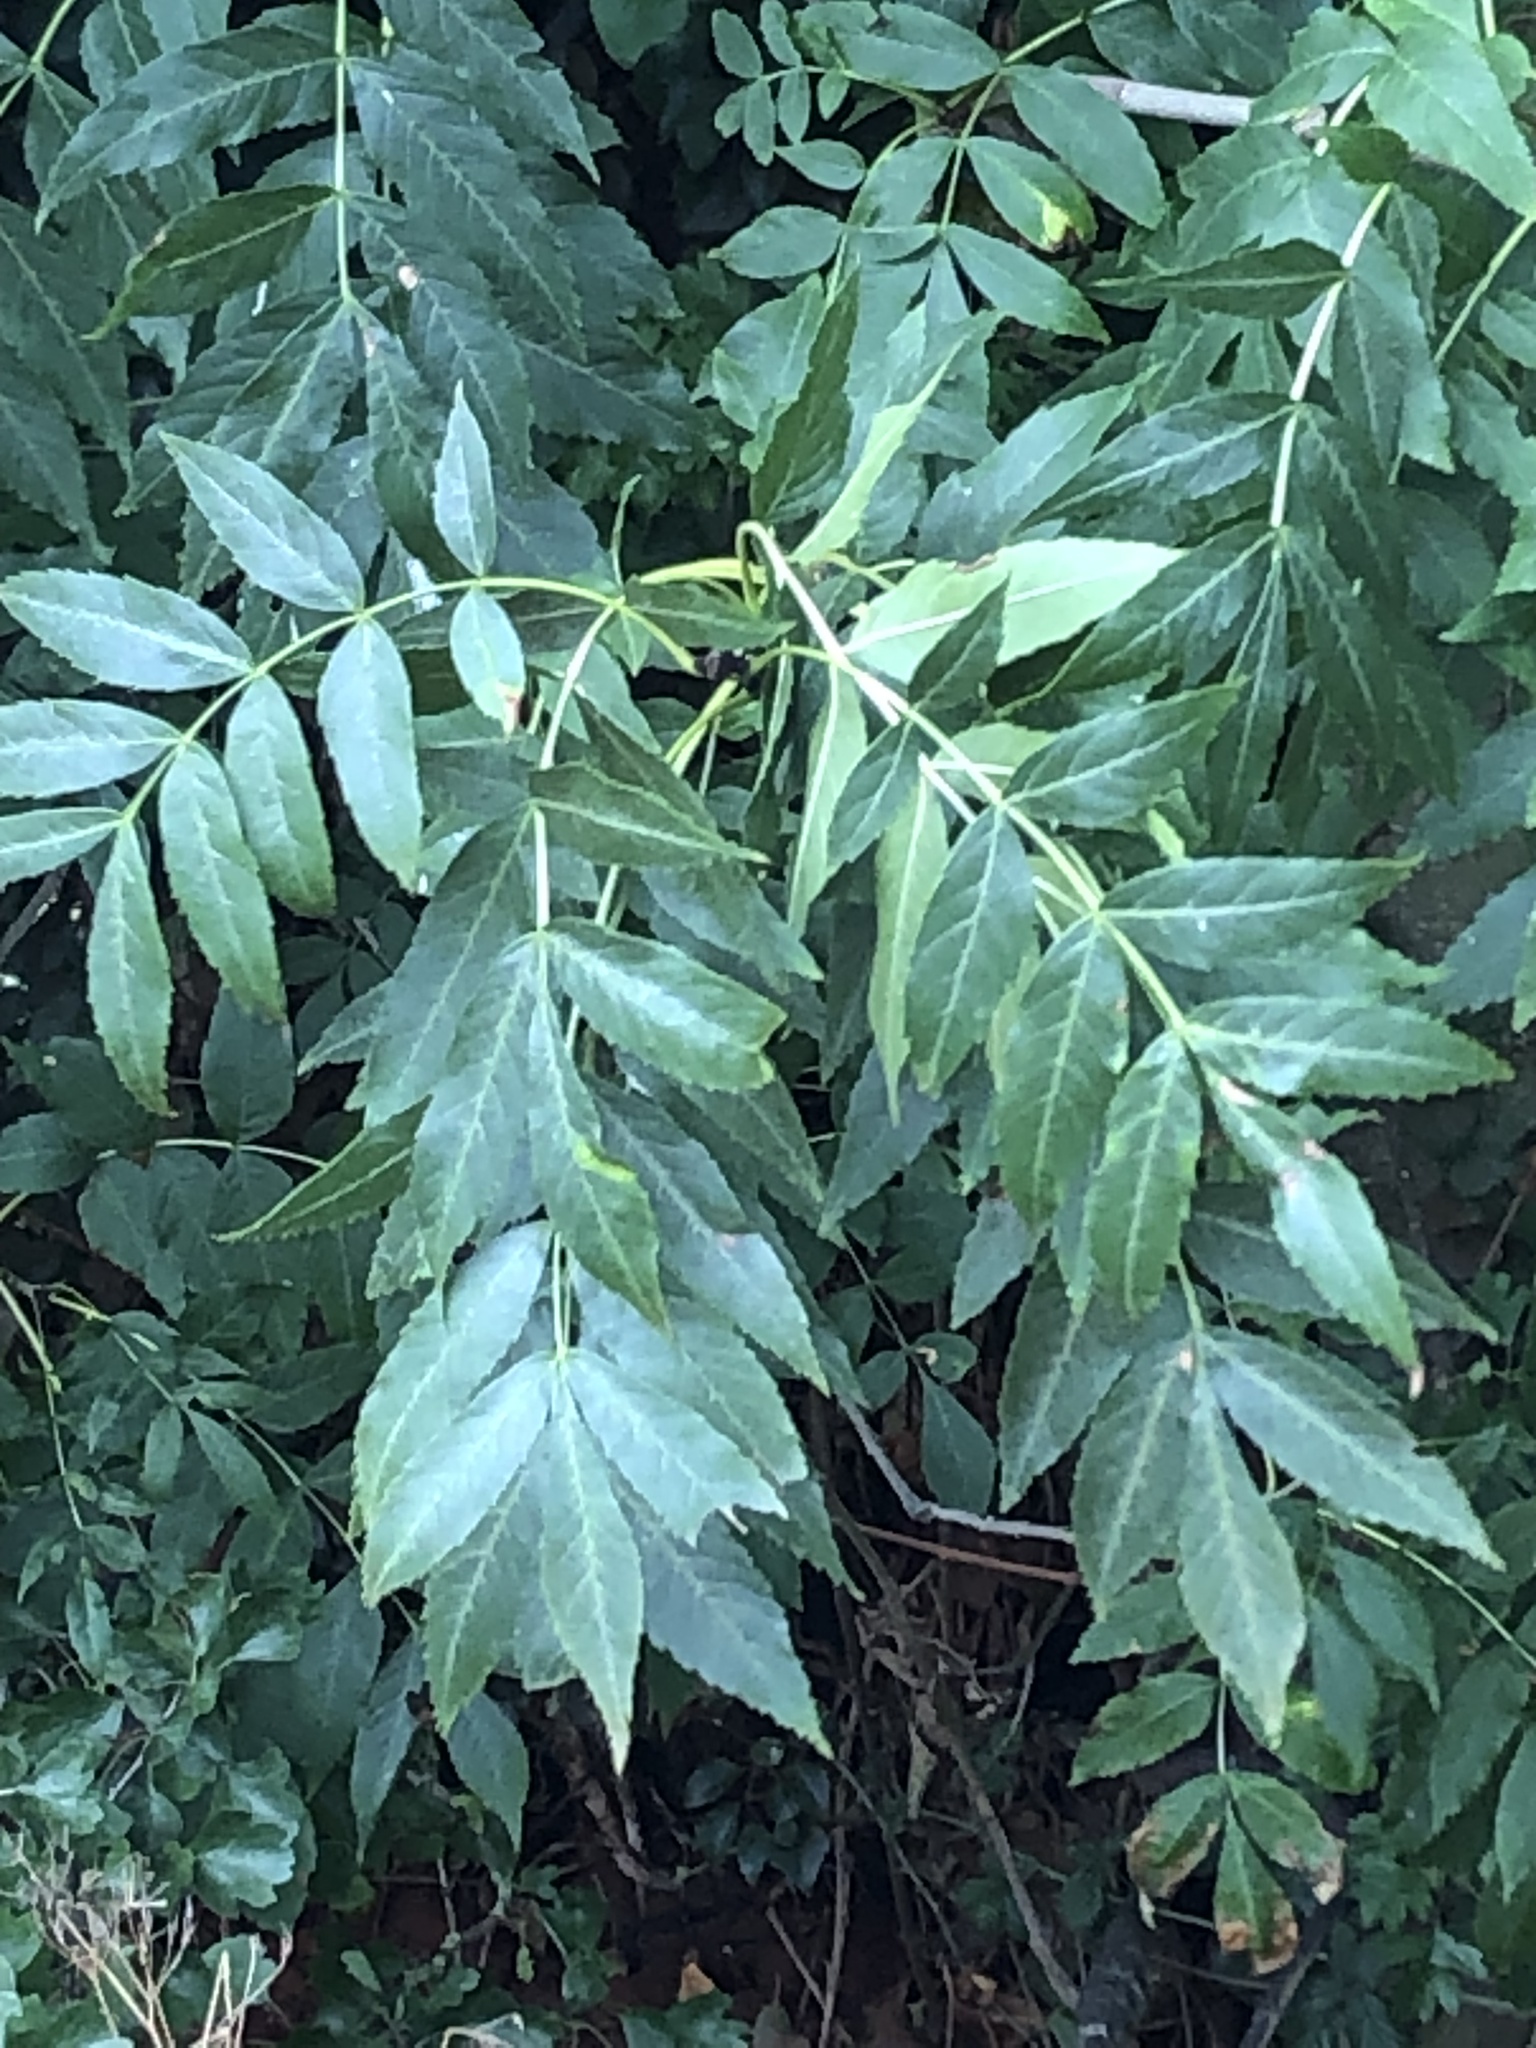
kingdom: Plantae
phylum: Tracheophyta
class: Magnoliopsida
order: Lamiales
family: Oleaceae
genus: Fraxinus
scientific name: Fraxinus excelsior
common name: European ash
